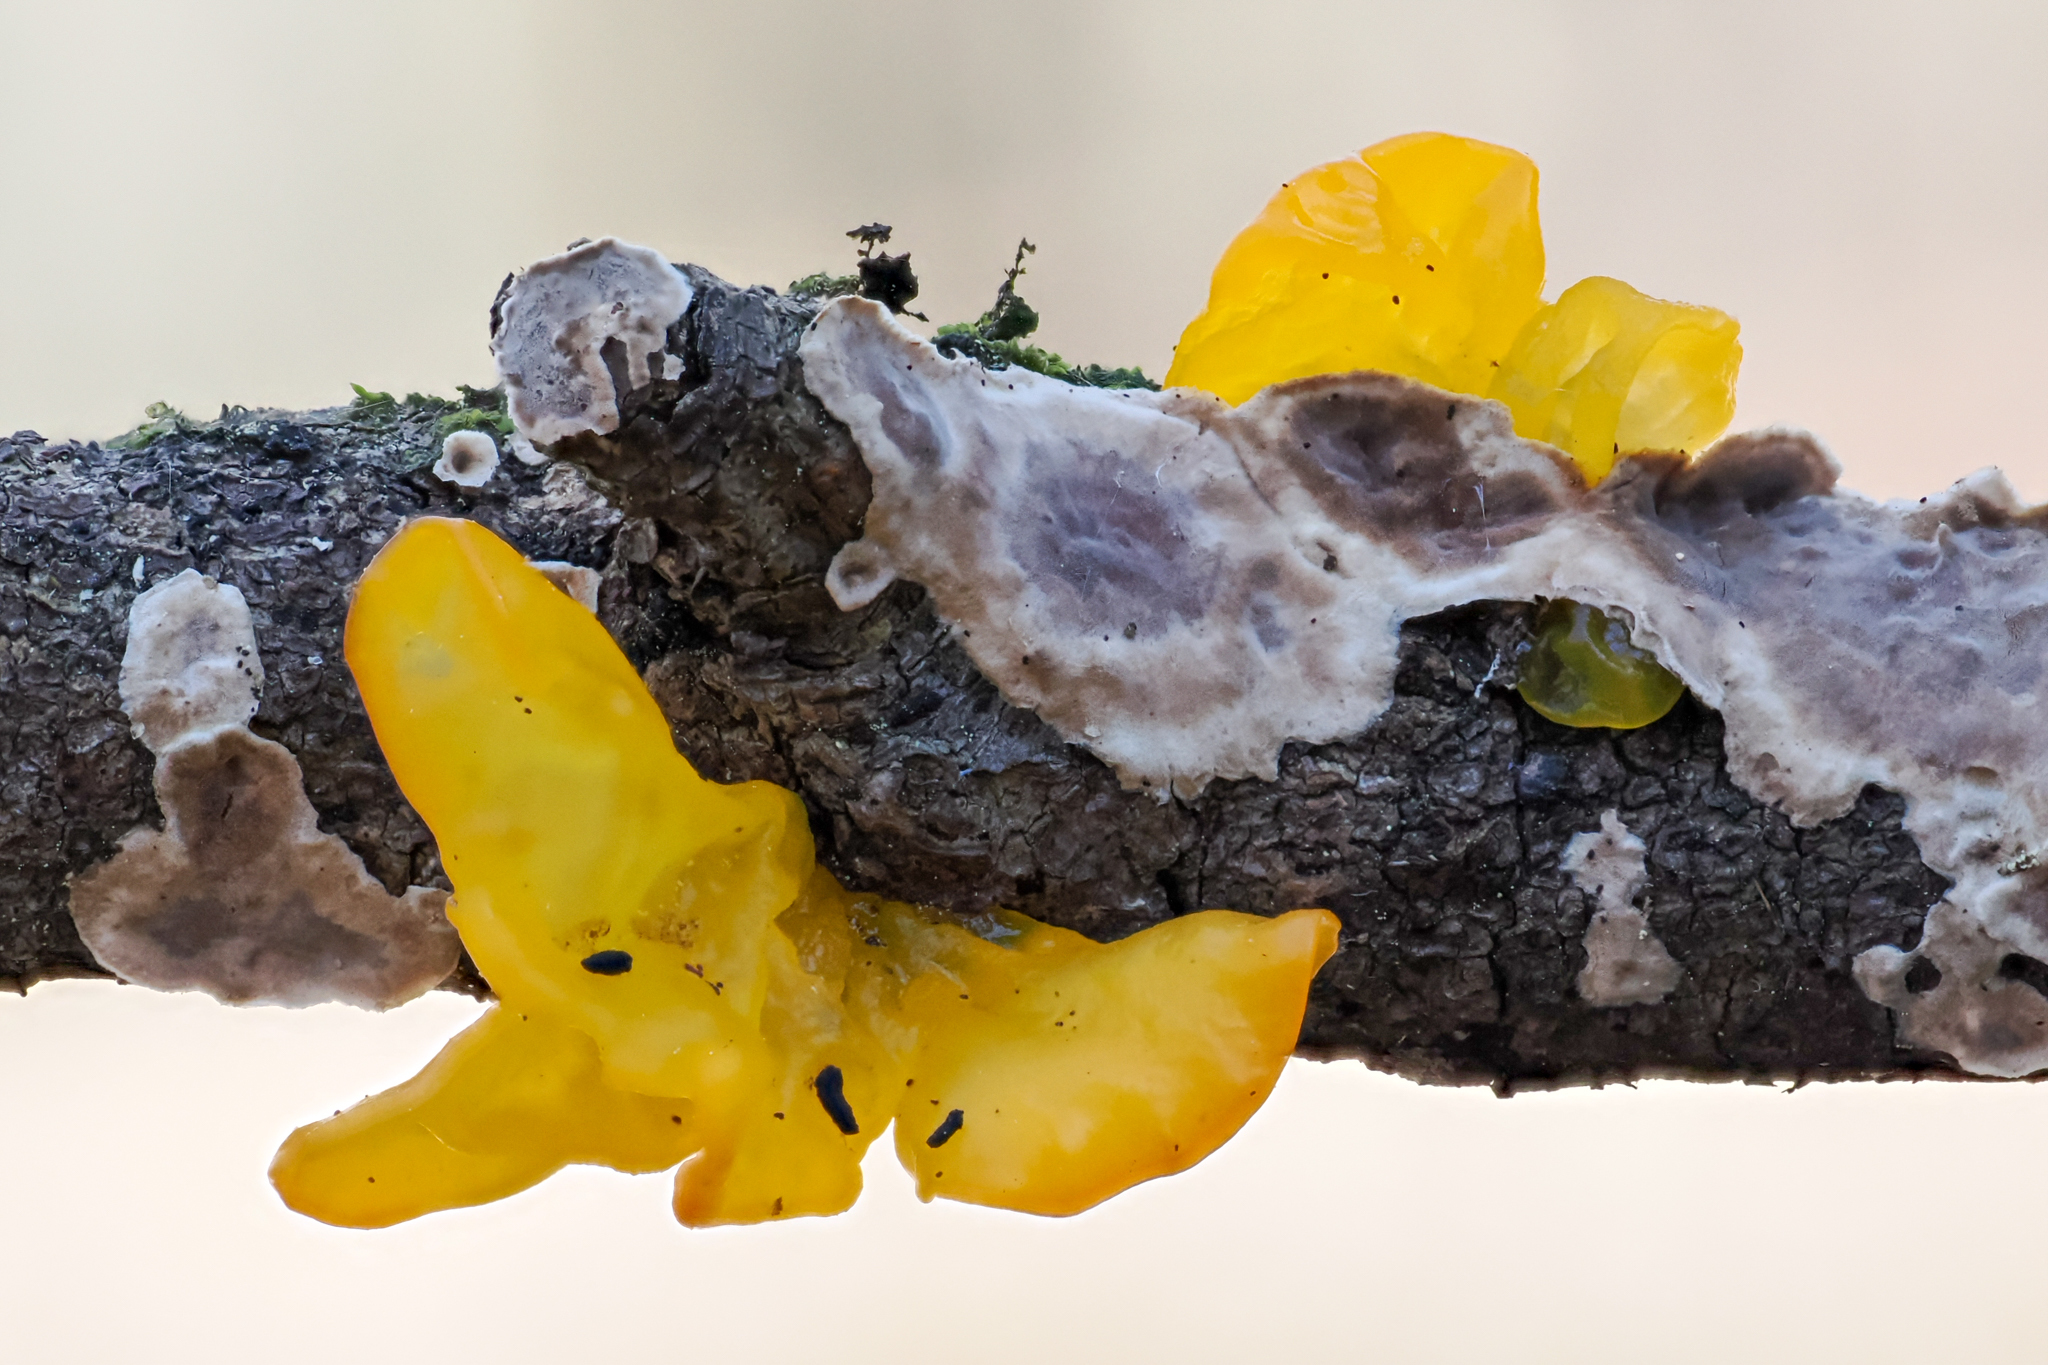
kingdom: Fungi
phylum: Basidiomycota
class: Tremellomycetes
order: Tremellales
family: Tremellaceae
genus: Tremella
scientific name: Tremella mesenterica
